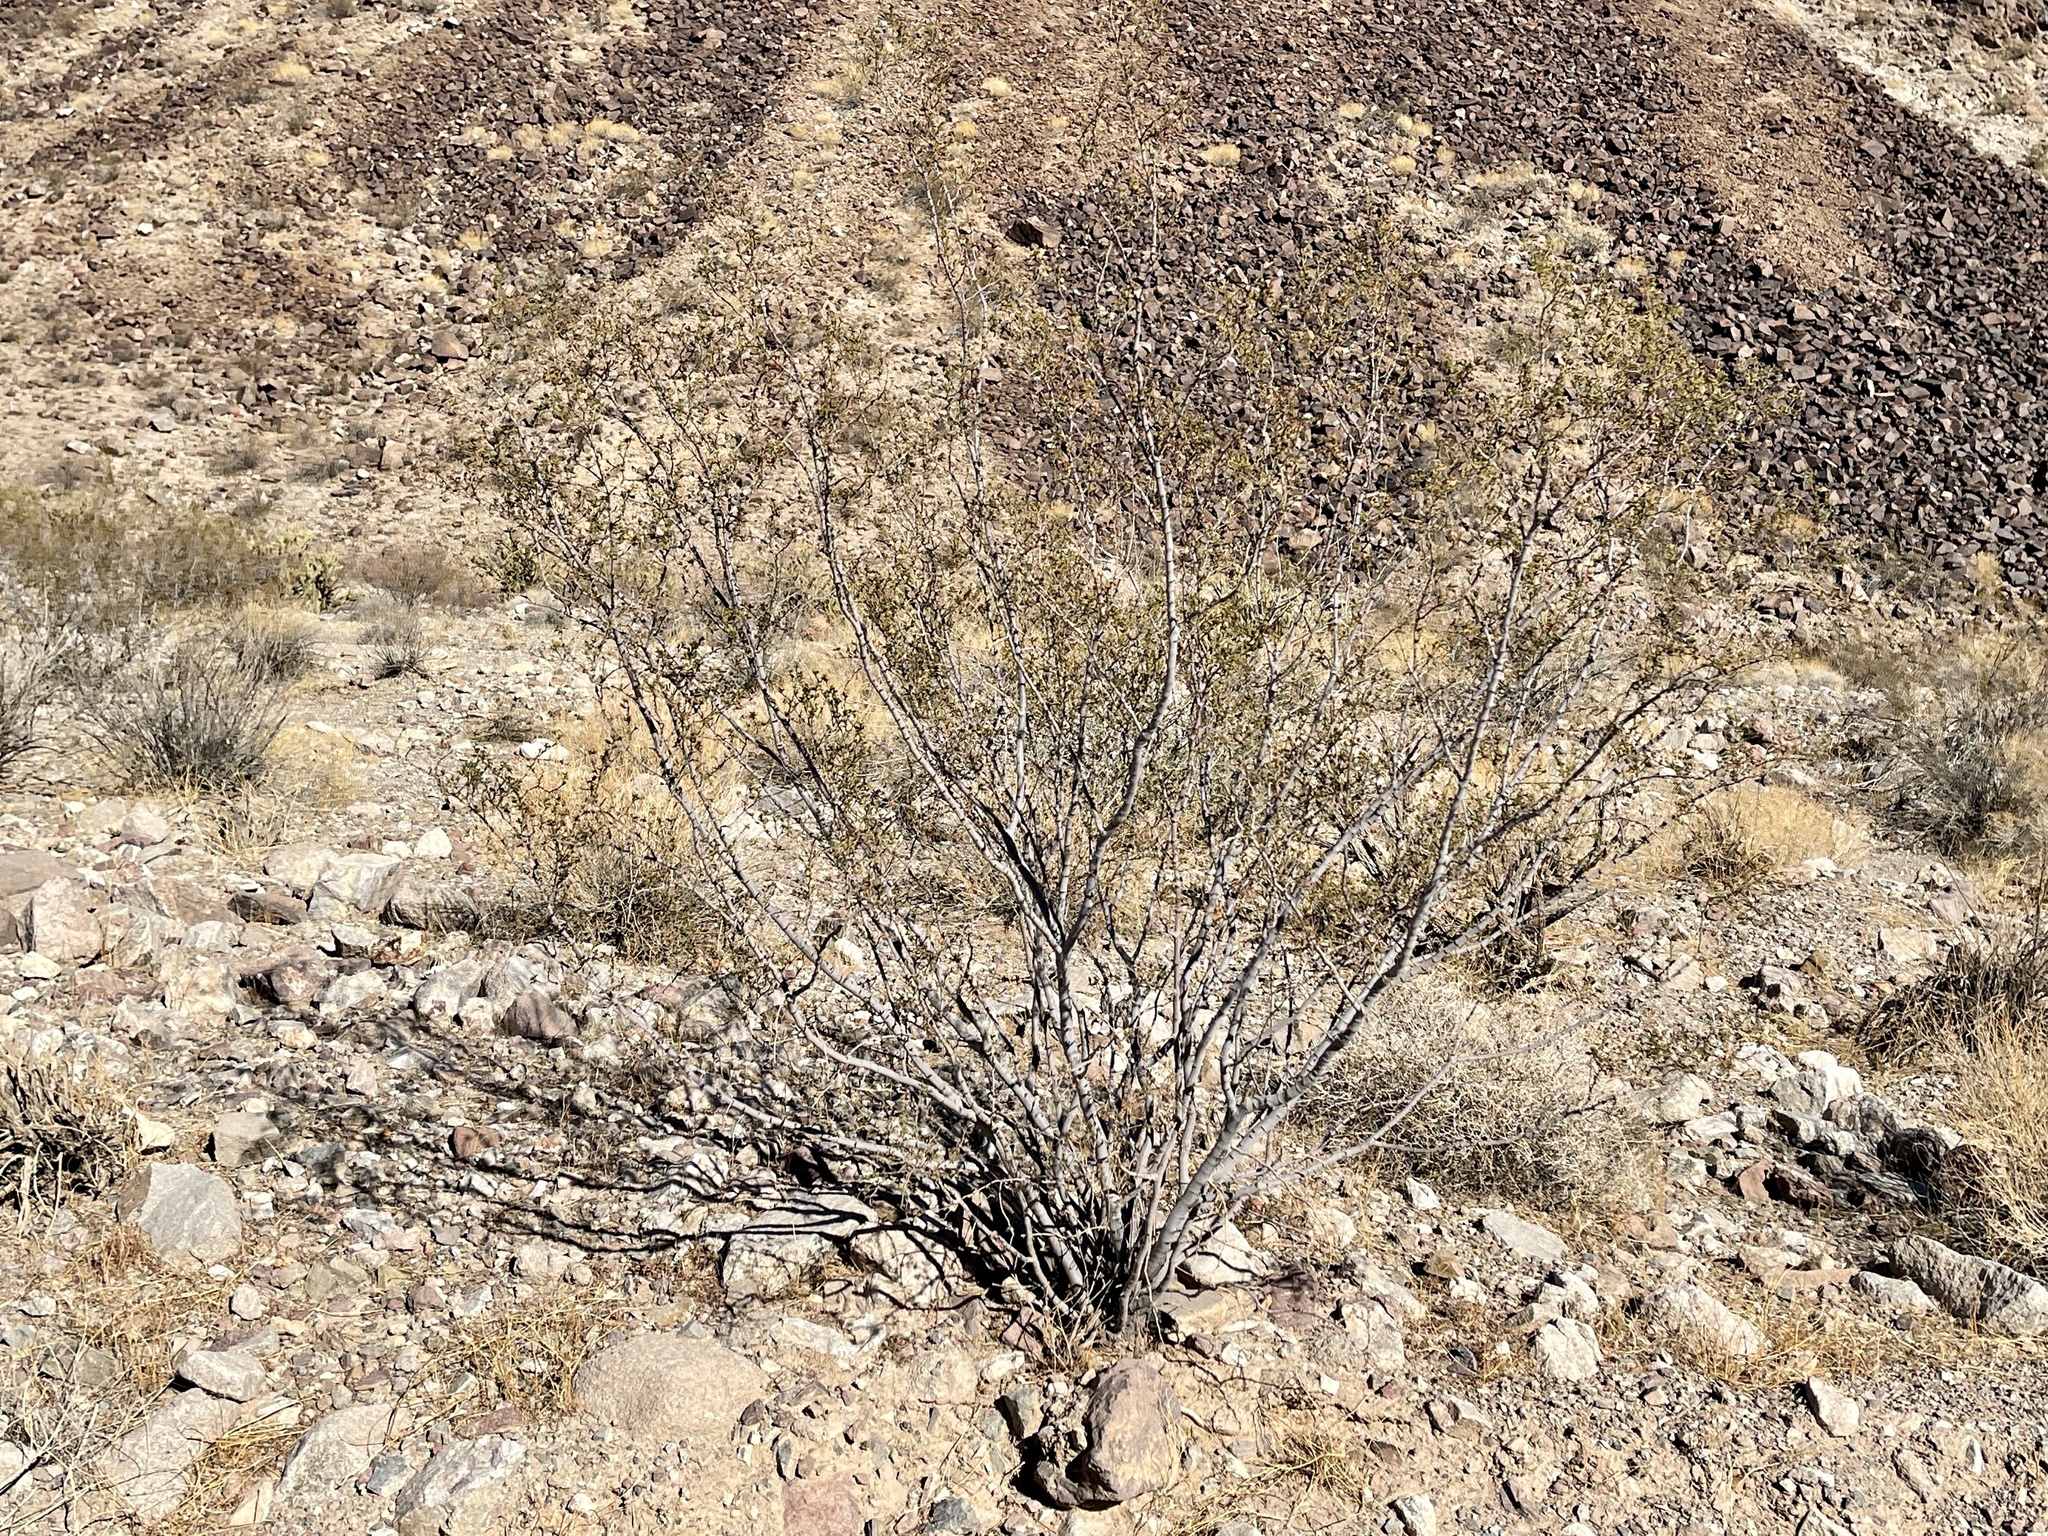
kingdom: Plantae
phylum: Tracheophyta
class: Magnoliopsida
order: Zygophyllales
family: Zygophyllaceae
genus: Larrea
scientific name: Larrea tridentata
